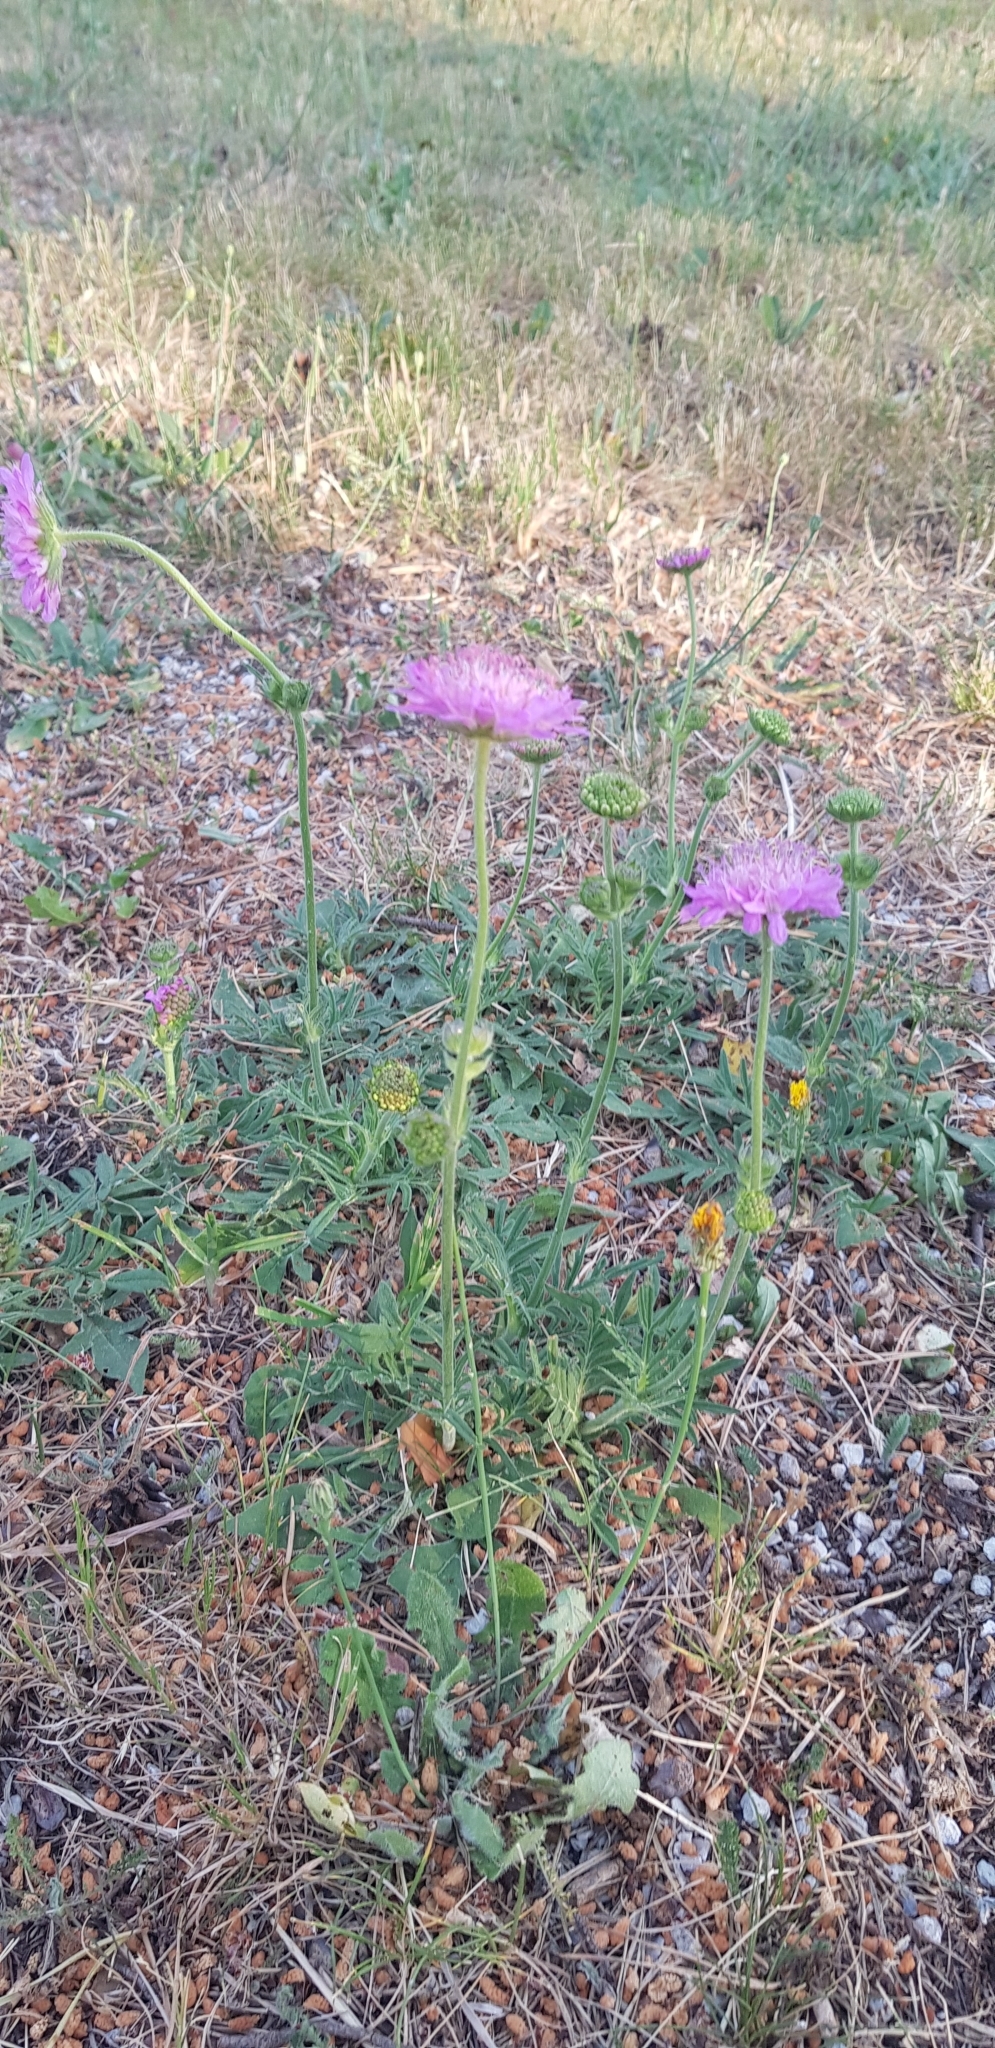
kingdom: Plantae
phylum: Tracheophyta
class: Magnoliopsida
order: Dipsacales
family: Caprifoliaceae
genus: Knautia
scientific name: Knautia arvensis
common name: Field scabiosa
